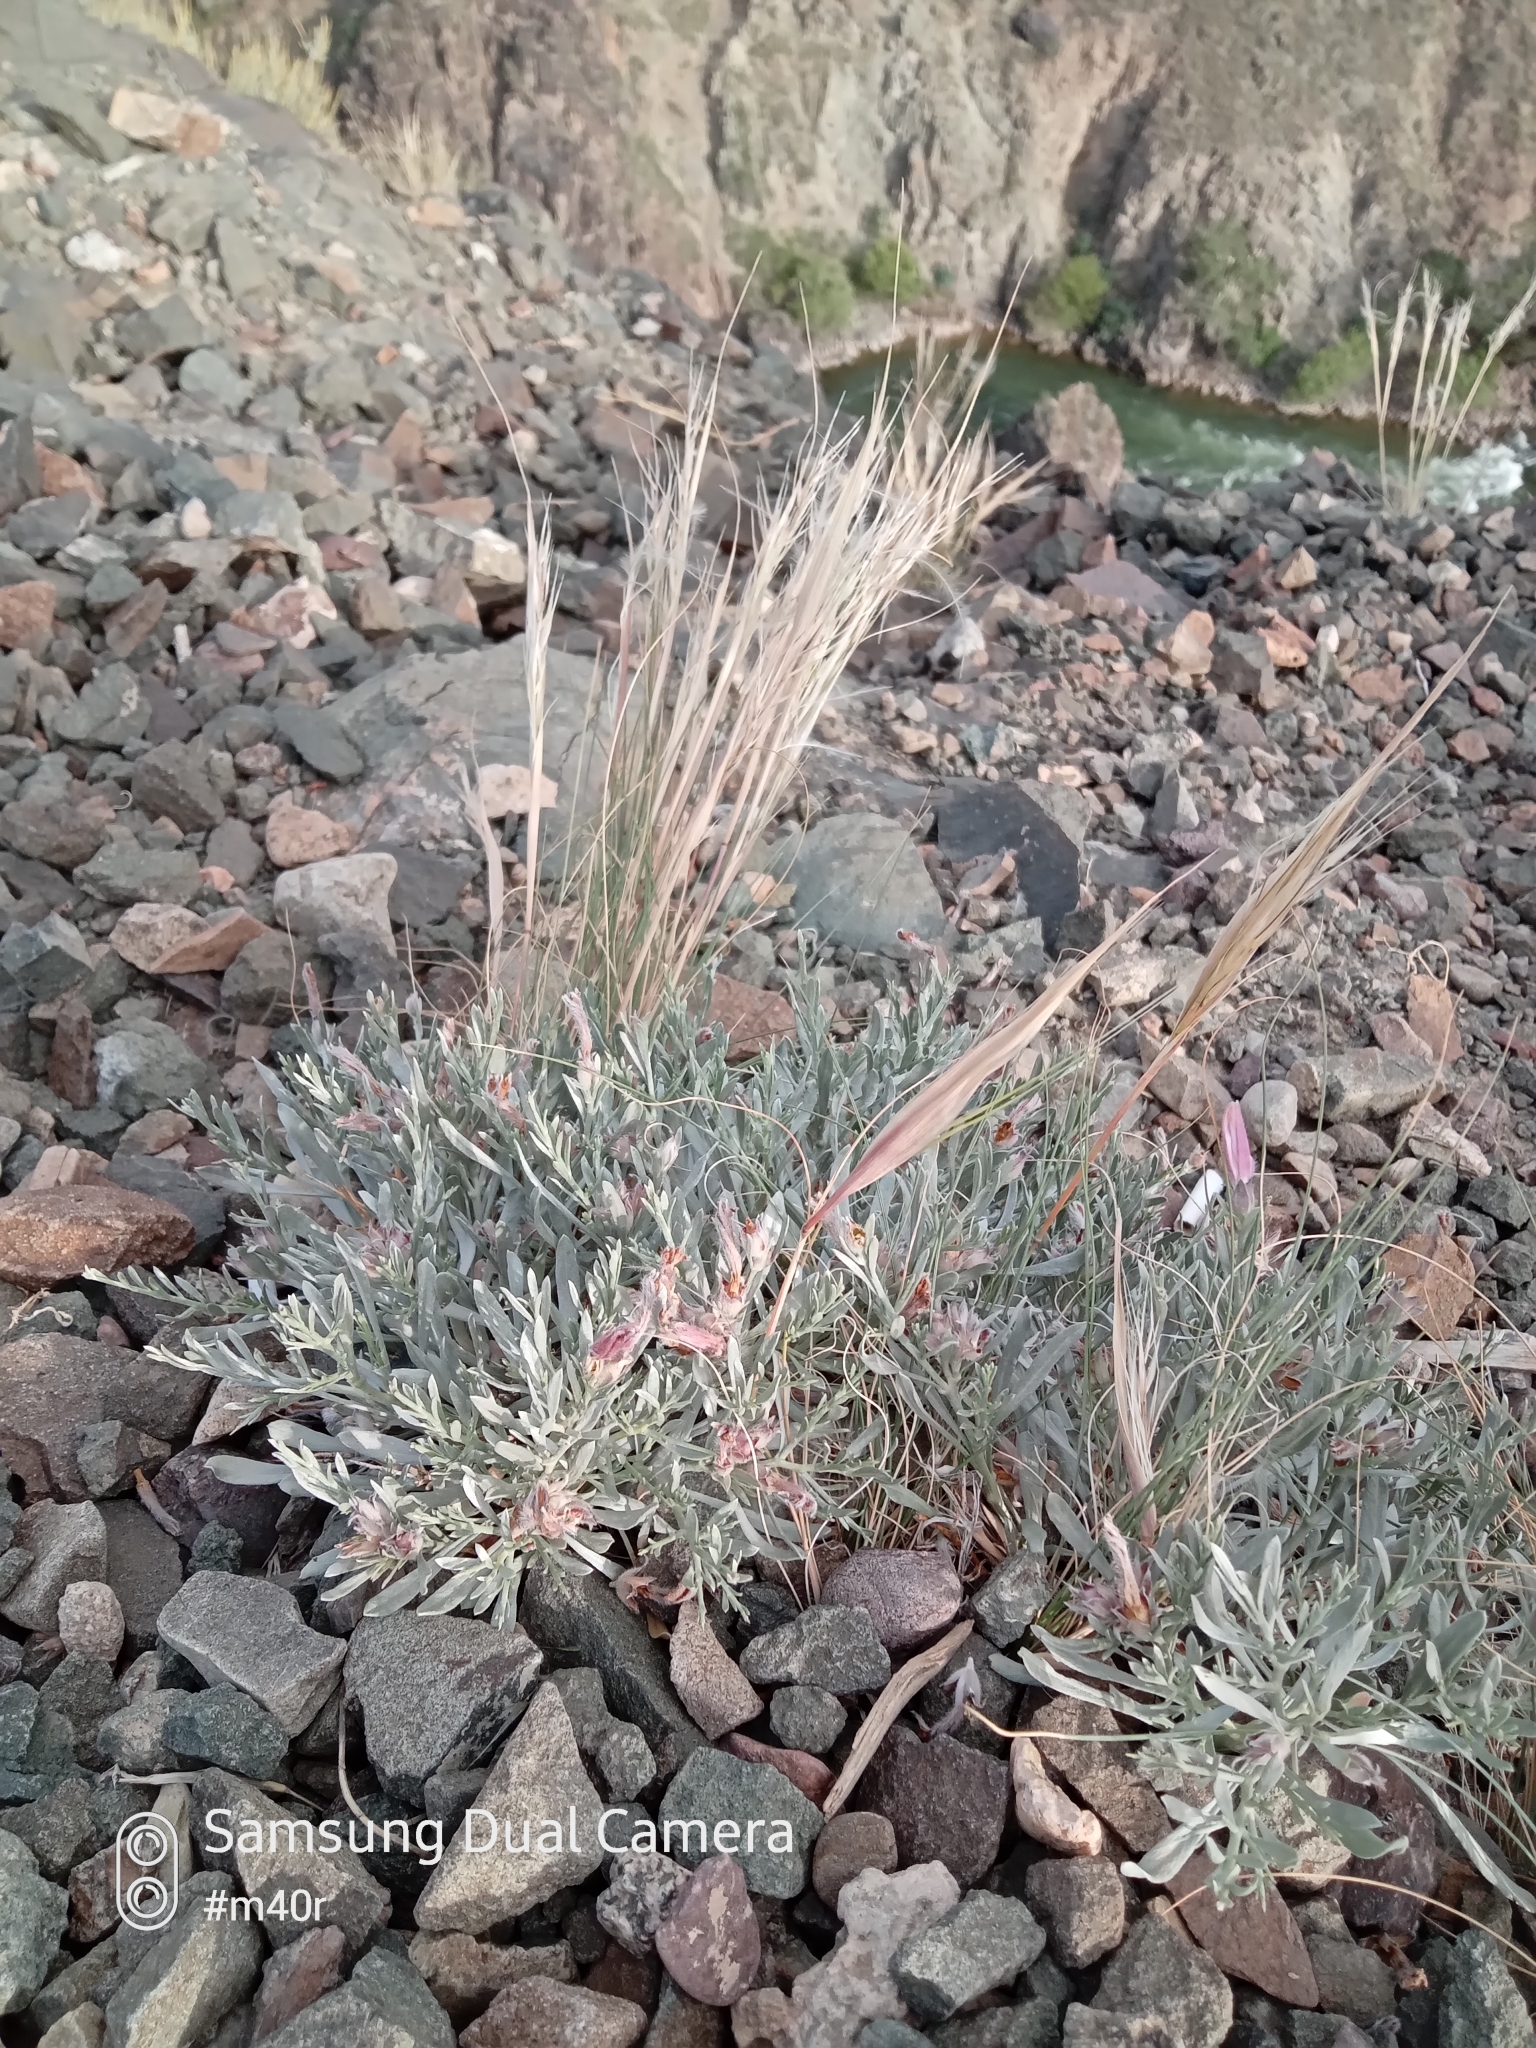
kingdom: Plantae
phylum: Tracheophyta
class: Magnoliopsida
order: Solanales
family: Convolvulaceae
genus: Convolvulus
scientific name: Convolvulus tragacanthoides
